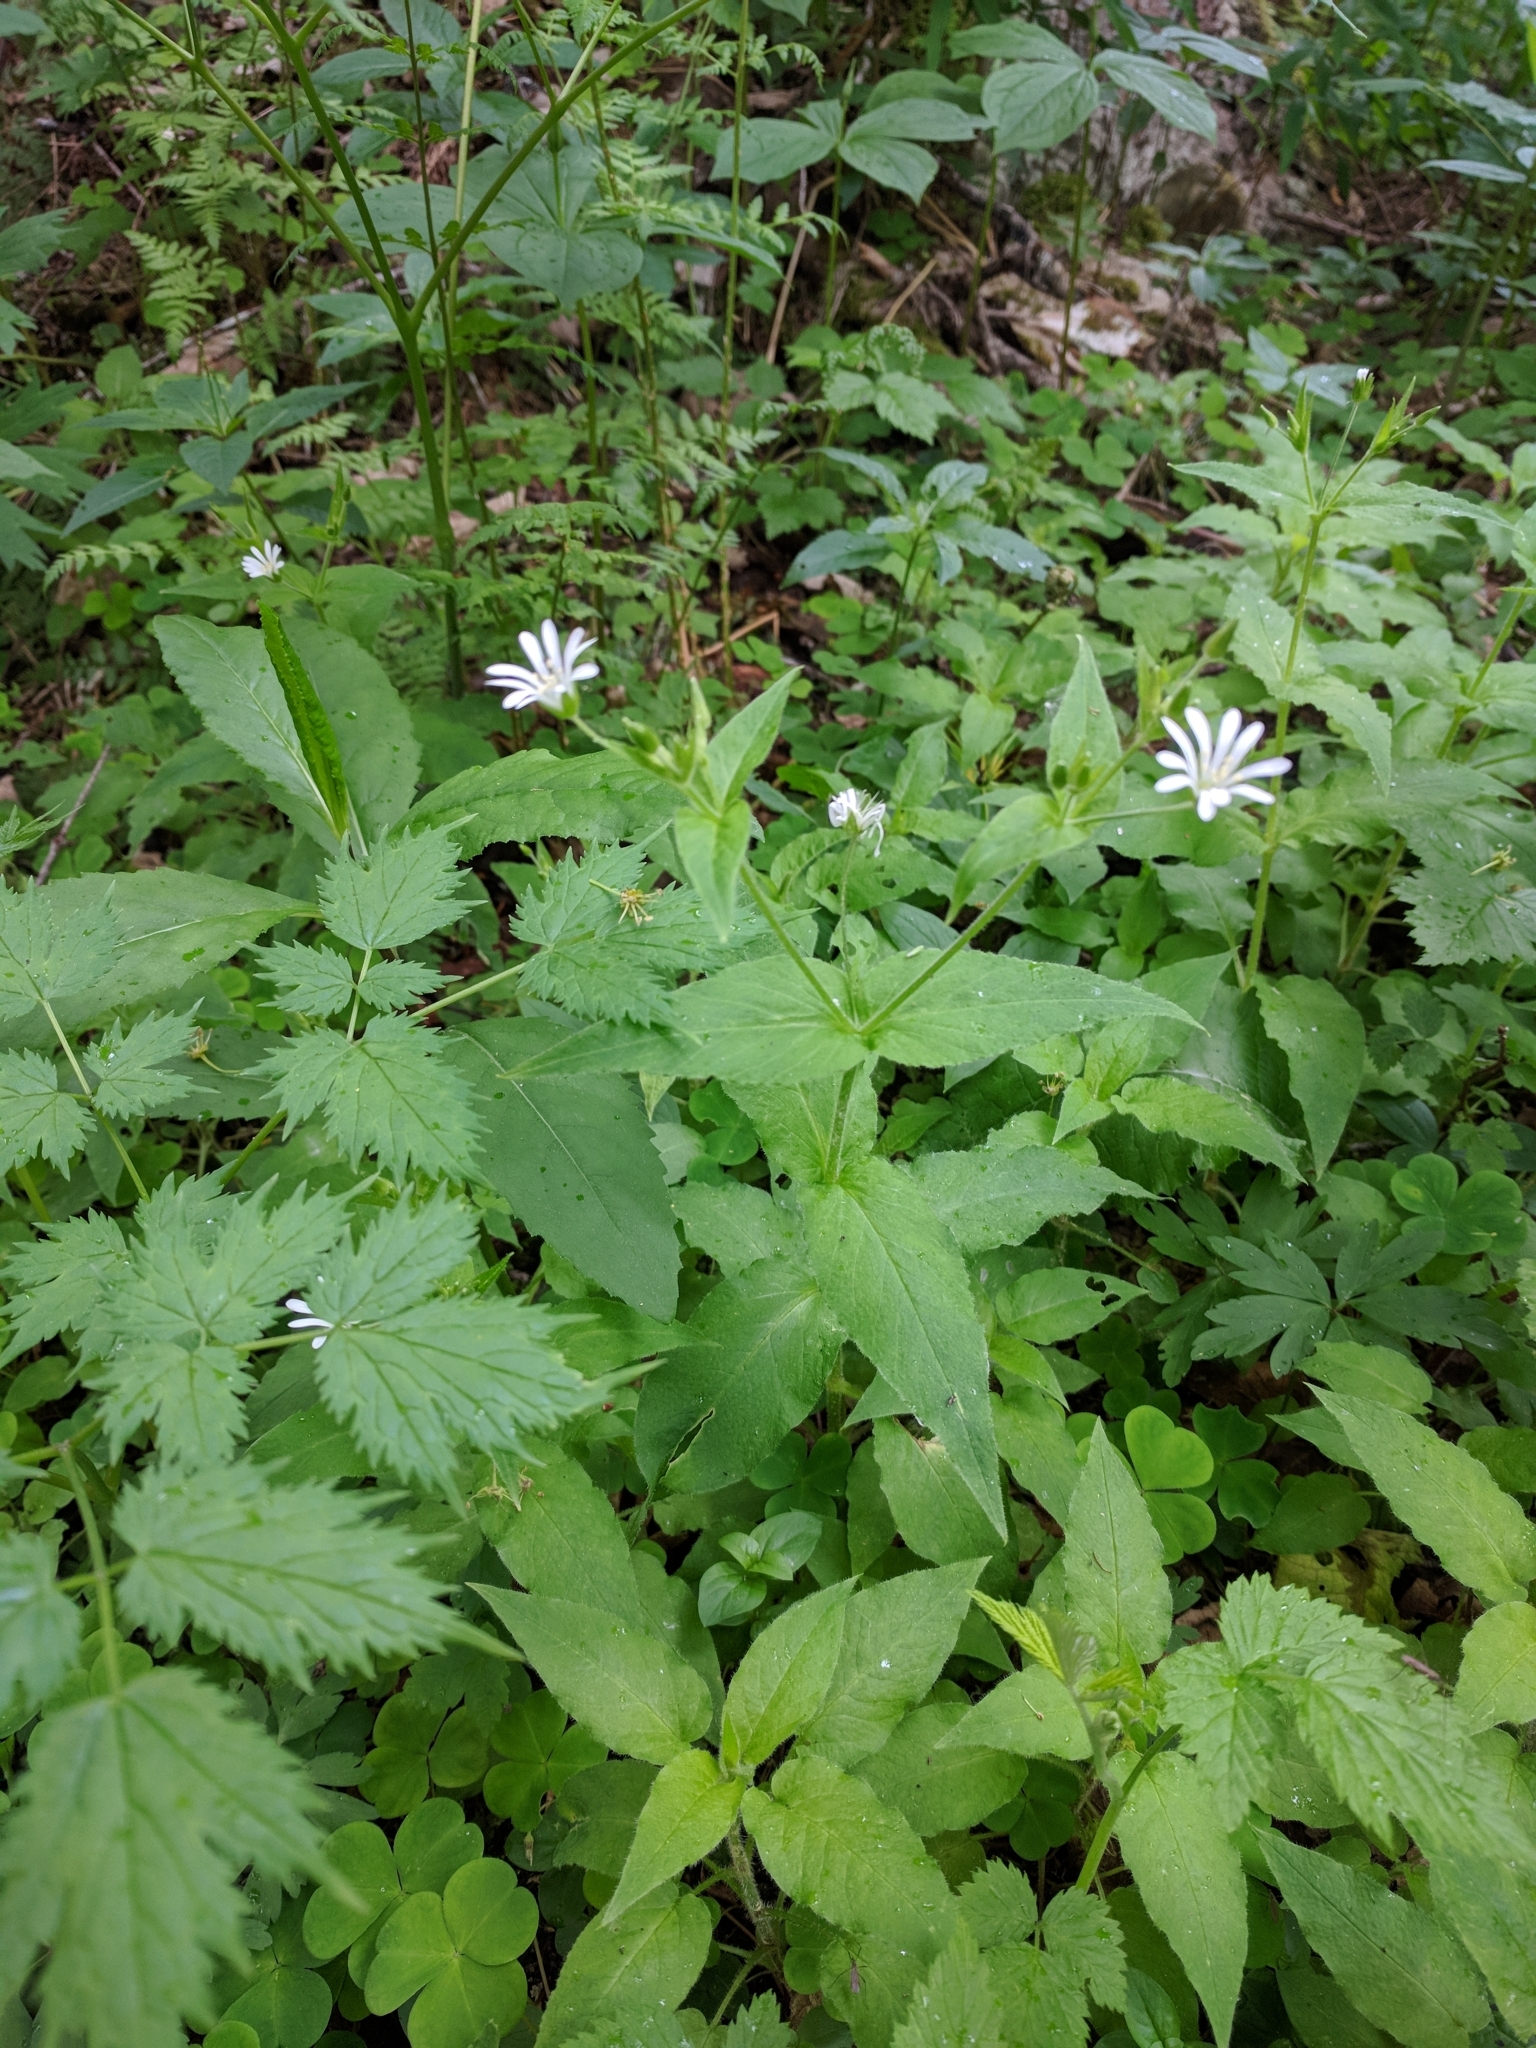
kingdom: Plantae
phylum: Tracheophyta
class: Magnoliopsida
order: Caryophyllales
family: Caryophyllaceae
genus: Stellaria
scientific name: Stellaria nemorum
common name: Wood stitchwort
